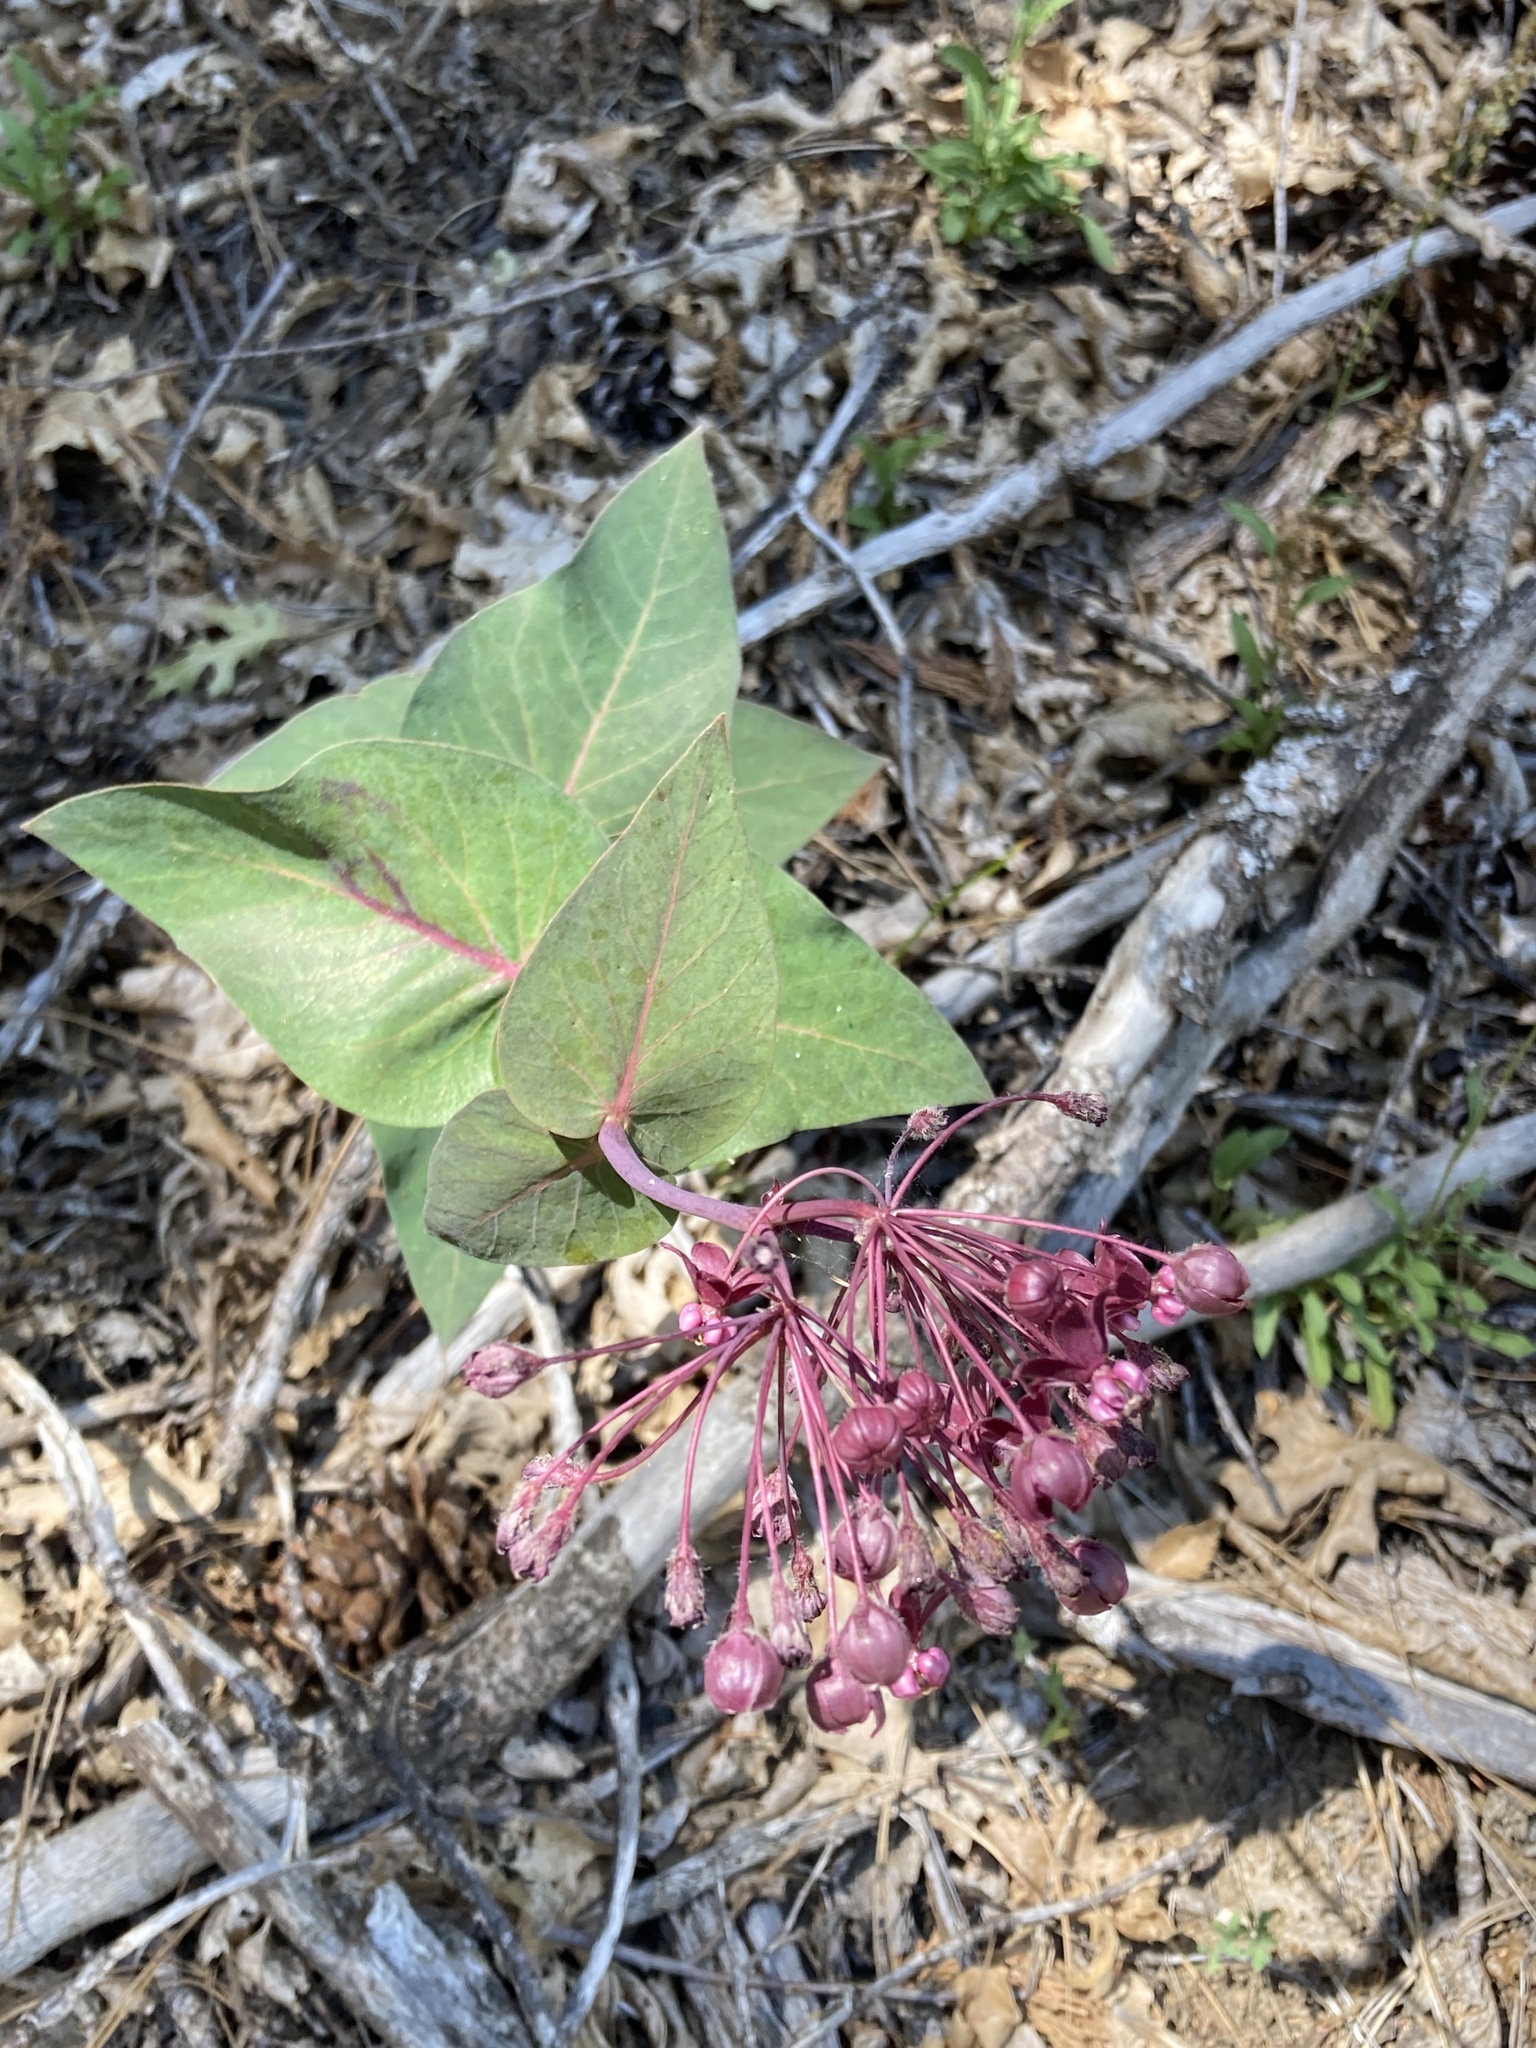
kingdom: Plantae
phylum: Tracheophyta
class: Magnoliopsida
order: Gentianales
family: Apocynaceae
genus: Asclepias
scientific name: Asclepias cordifolia
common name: Purple milkweed
